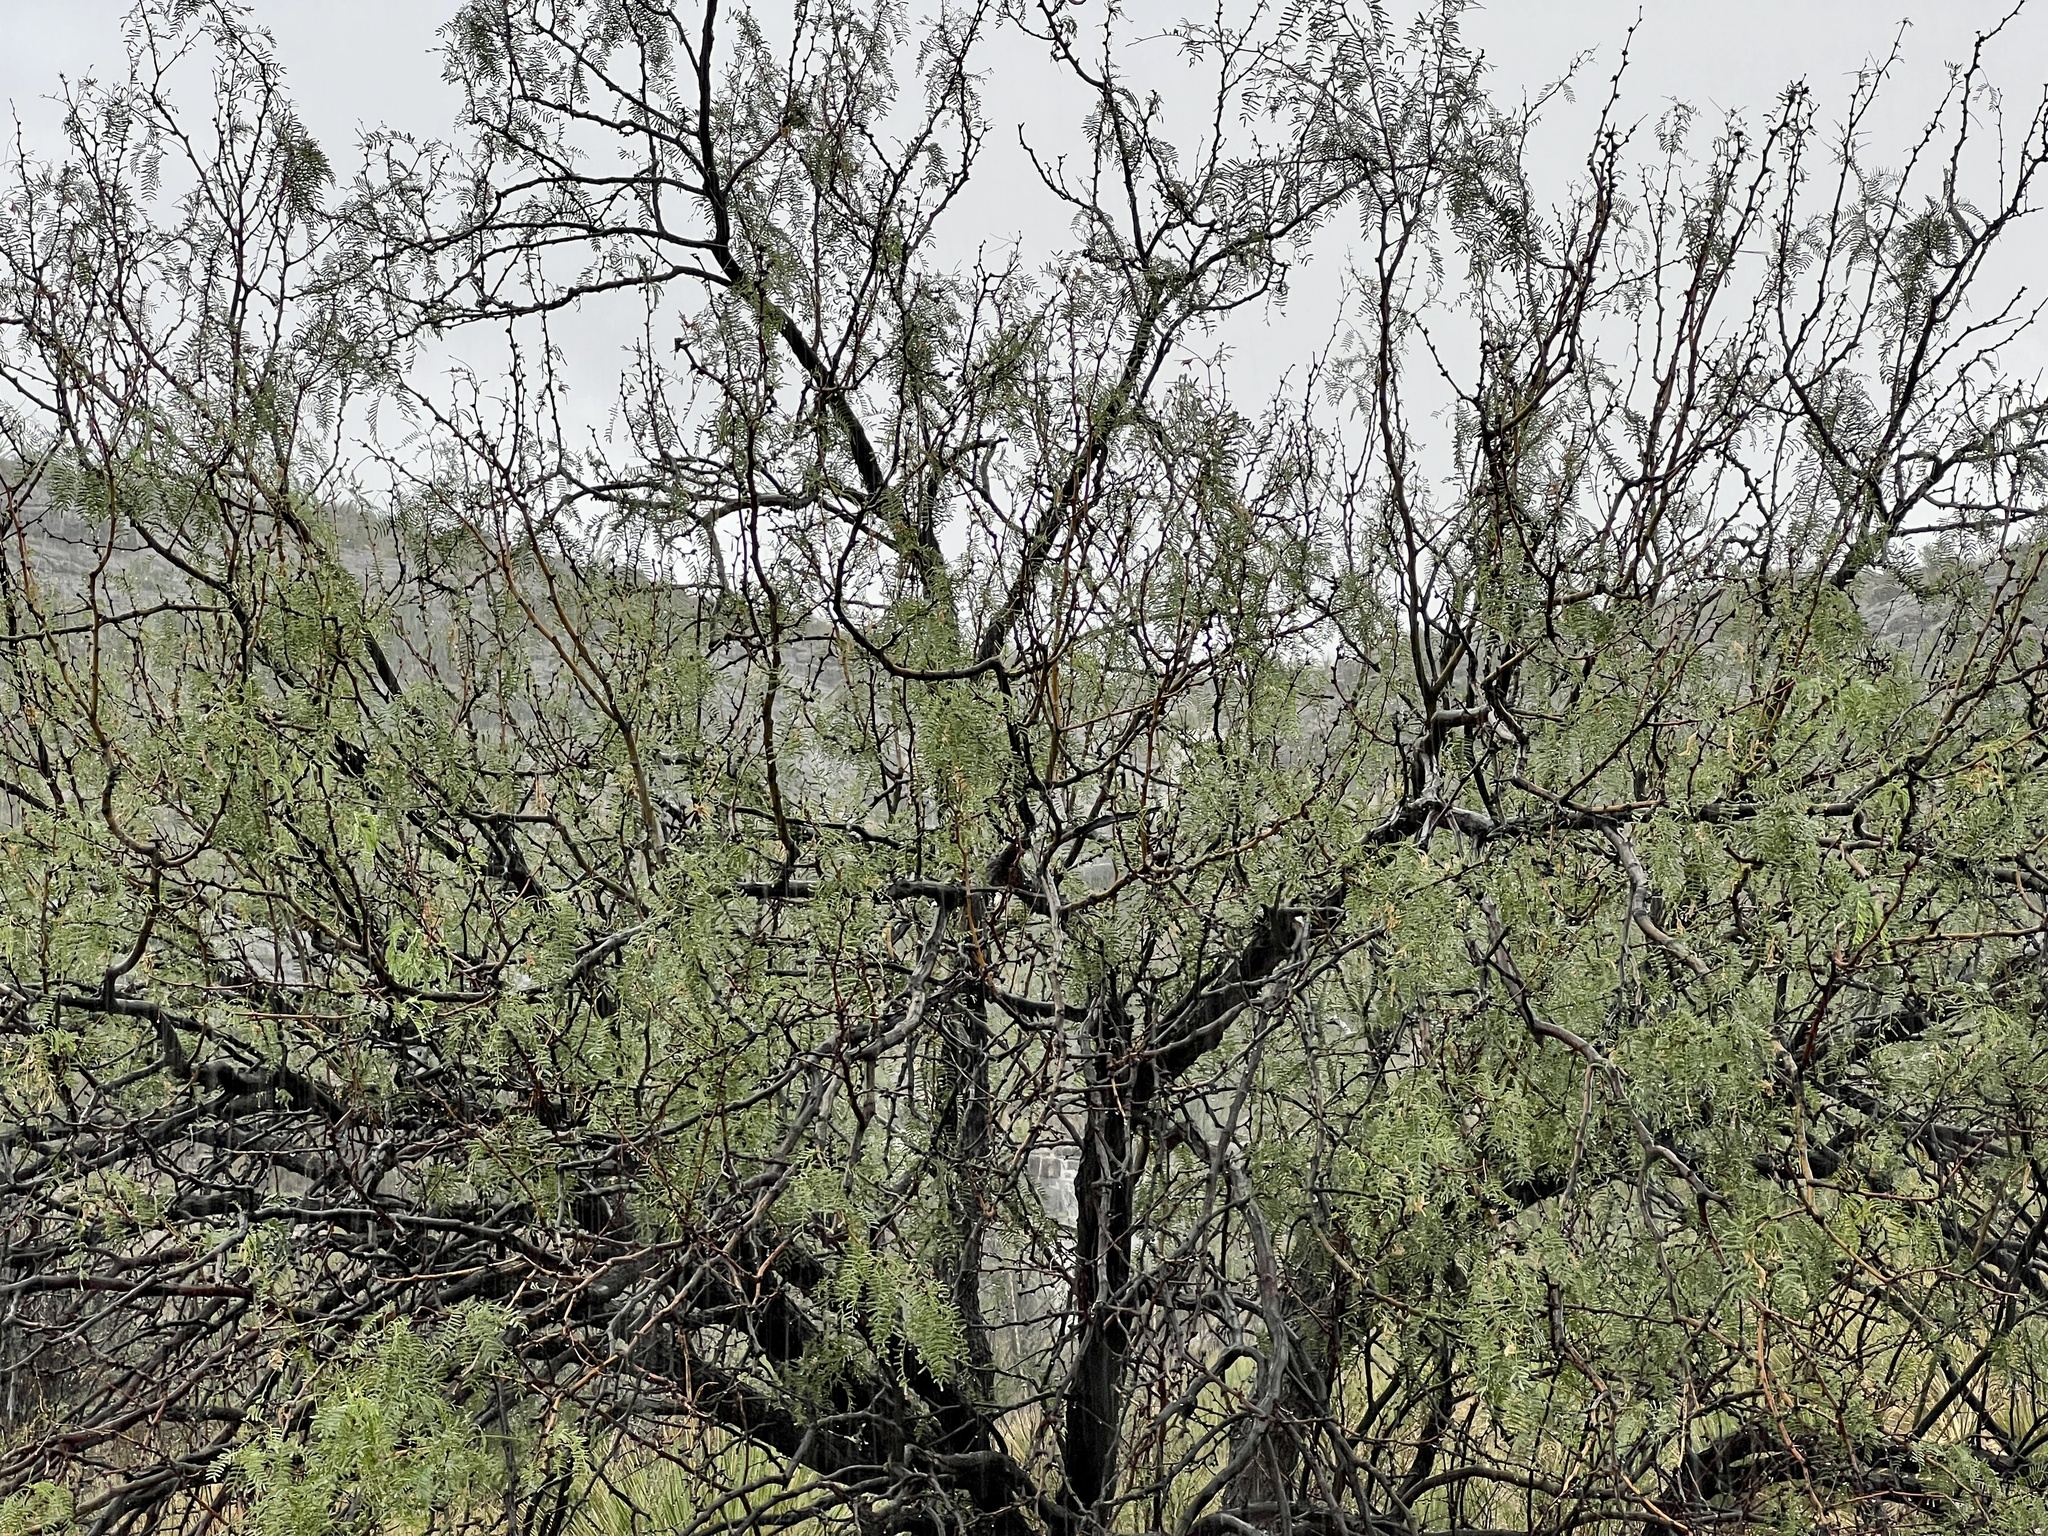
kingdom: Plantae
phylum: Tracheophyta
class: Magnoliopsida
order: Fabales
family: Fabaceae
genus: Prosopis
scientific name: Prosopis glandulosa
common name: Honey mesquite
